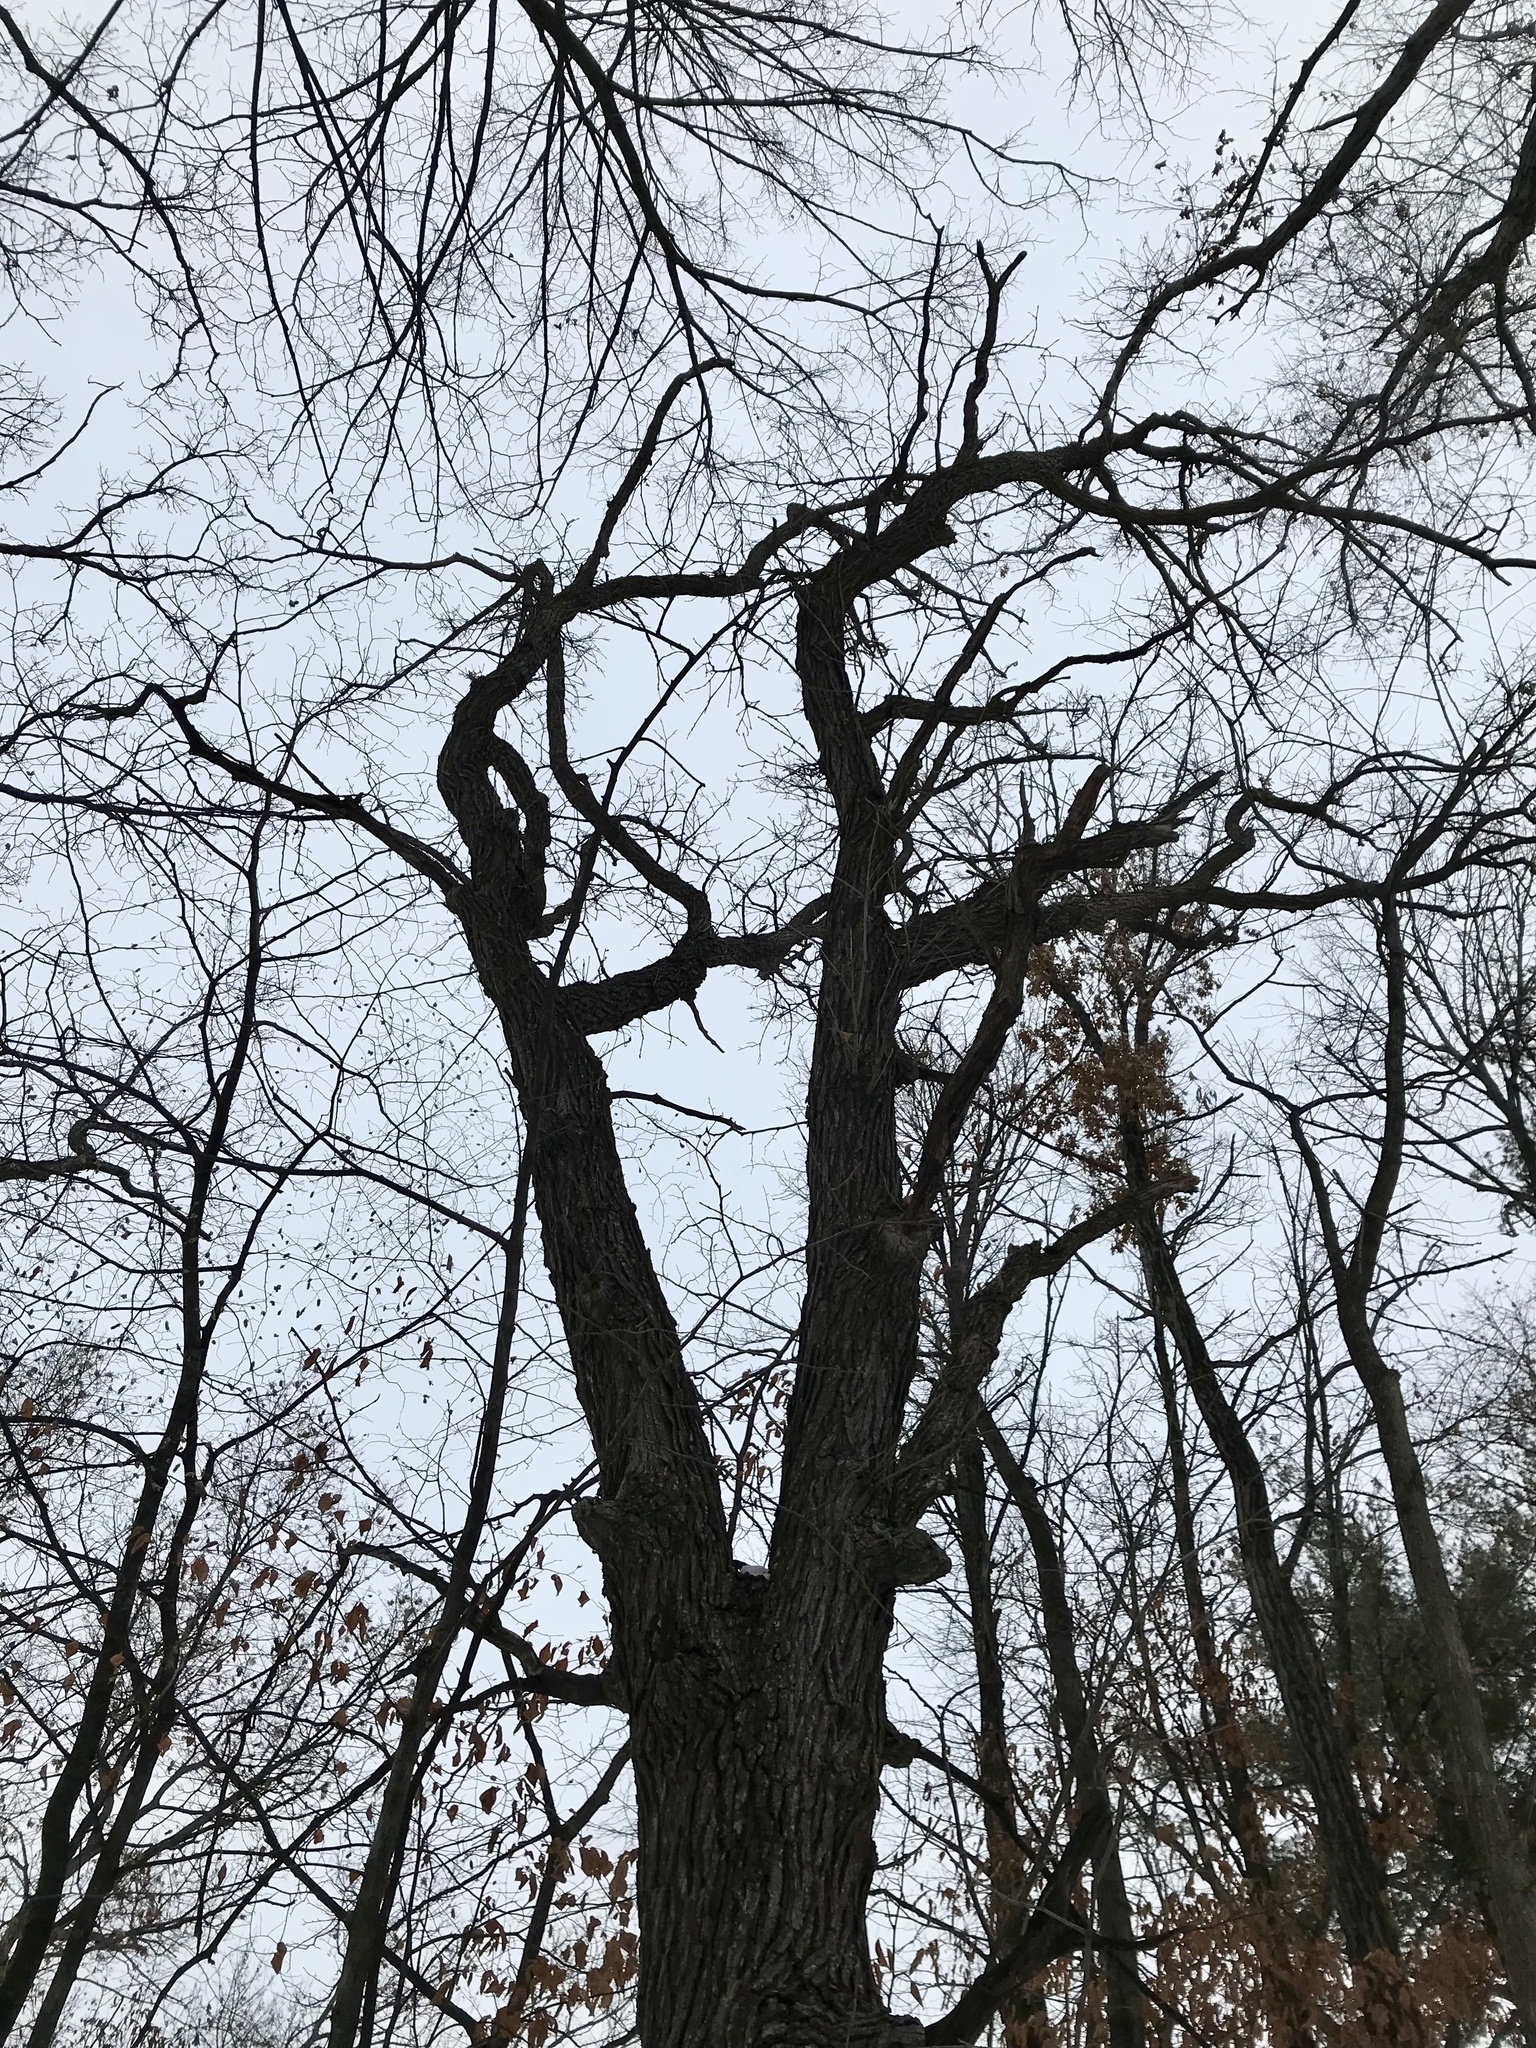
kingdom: Plantae
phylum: Tracheophyta
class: Magnoliopsida
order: Fagales
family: Fagaceae
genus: Quercus
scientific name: Quercus macrocarpa
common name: Bur oak
